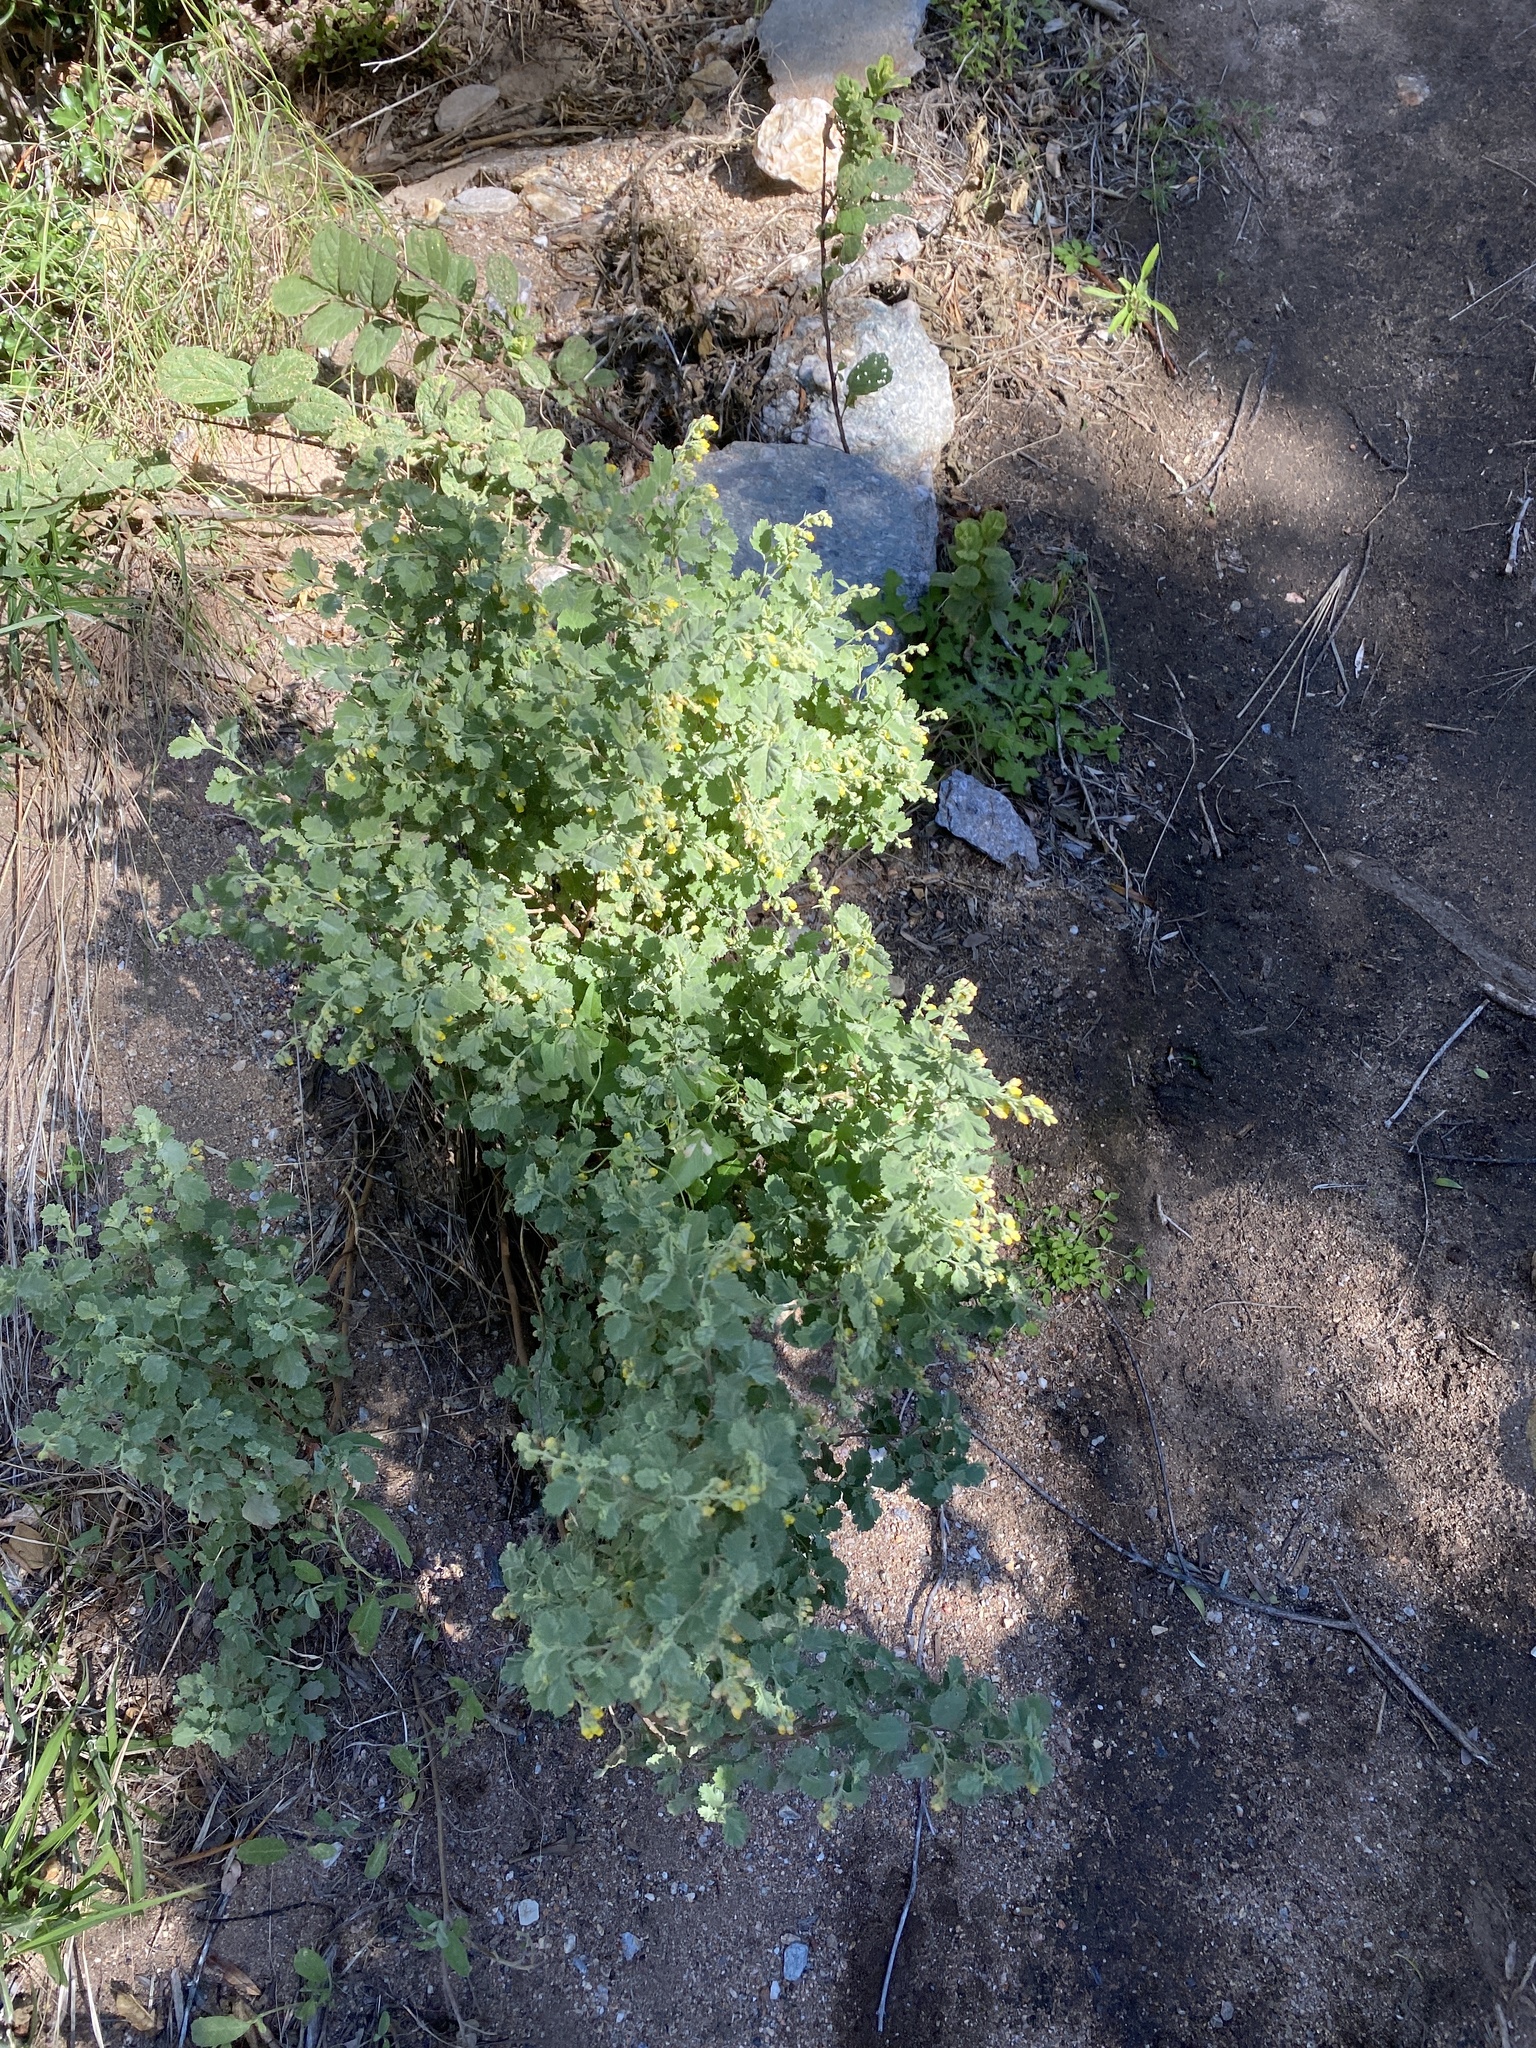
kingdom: Plantae
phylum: Tracheophyta
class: Magnoliopsida
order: Malvales
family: Malvaceae
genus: Hermannia
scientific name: Hermannia holosericea
